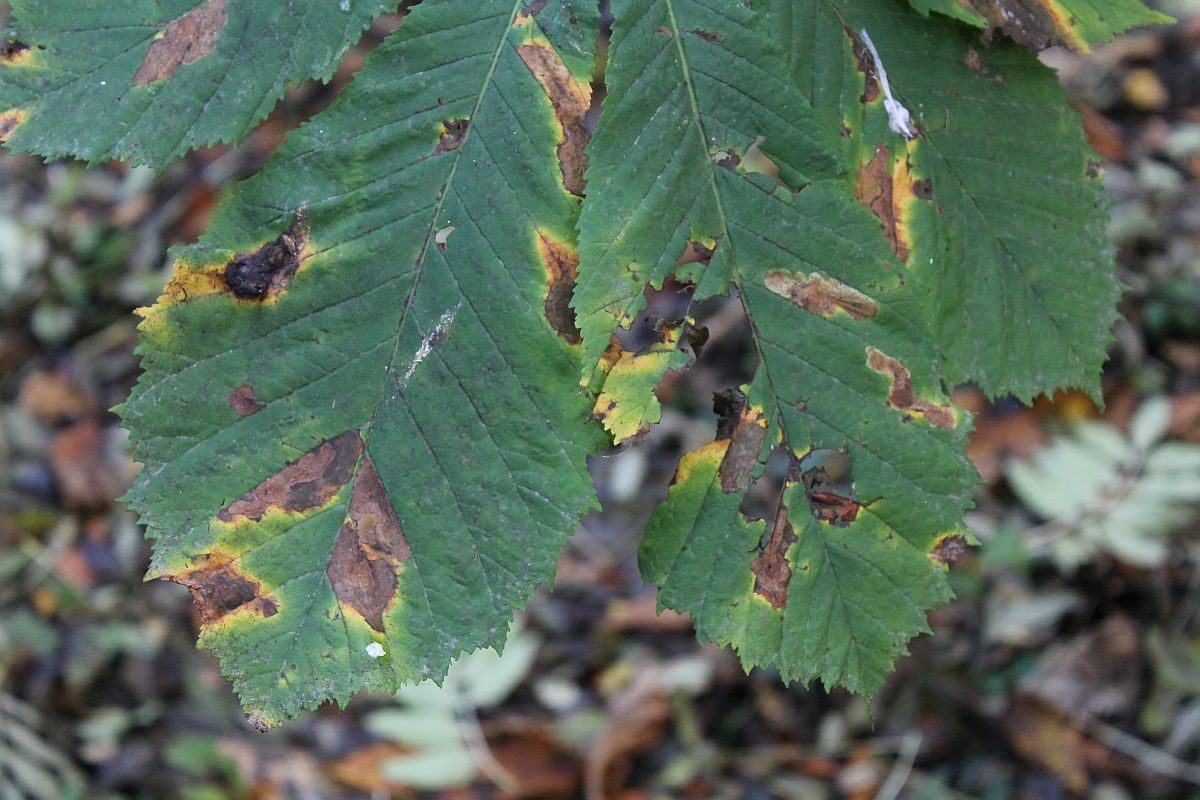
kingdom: Animalia
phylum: Arthropoda
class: Insecta
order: Lepidoptera
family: Gracillariidae
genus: Cameraria
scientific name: Cameraria ohridella
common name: Horse-chestnut leaf-miner
